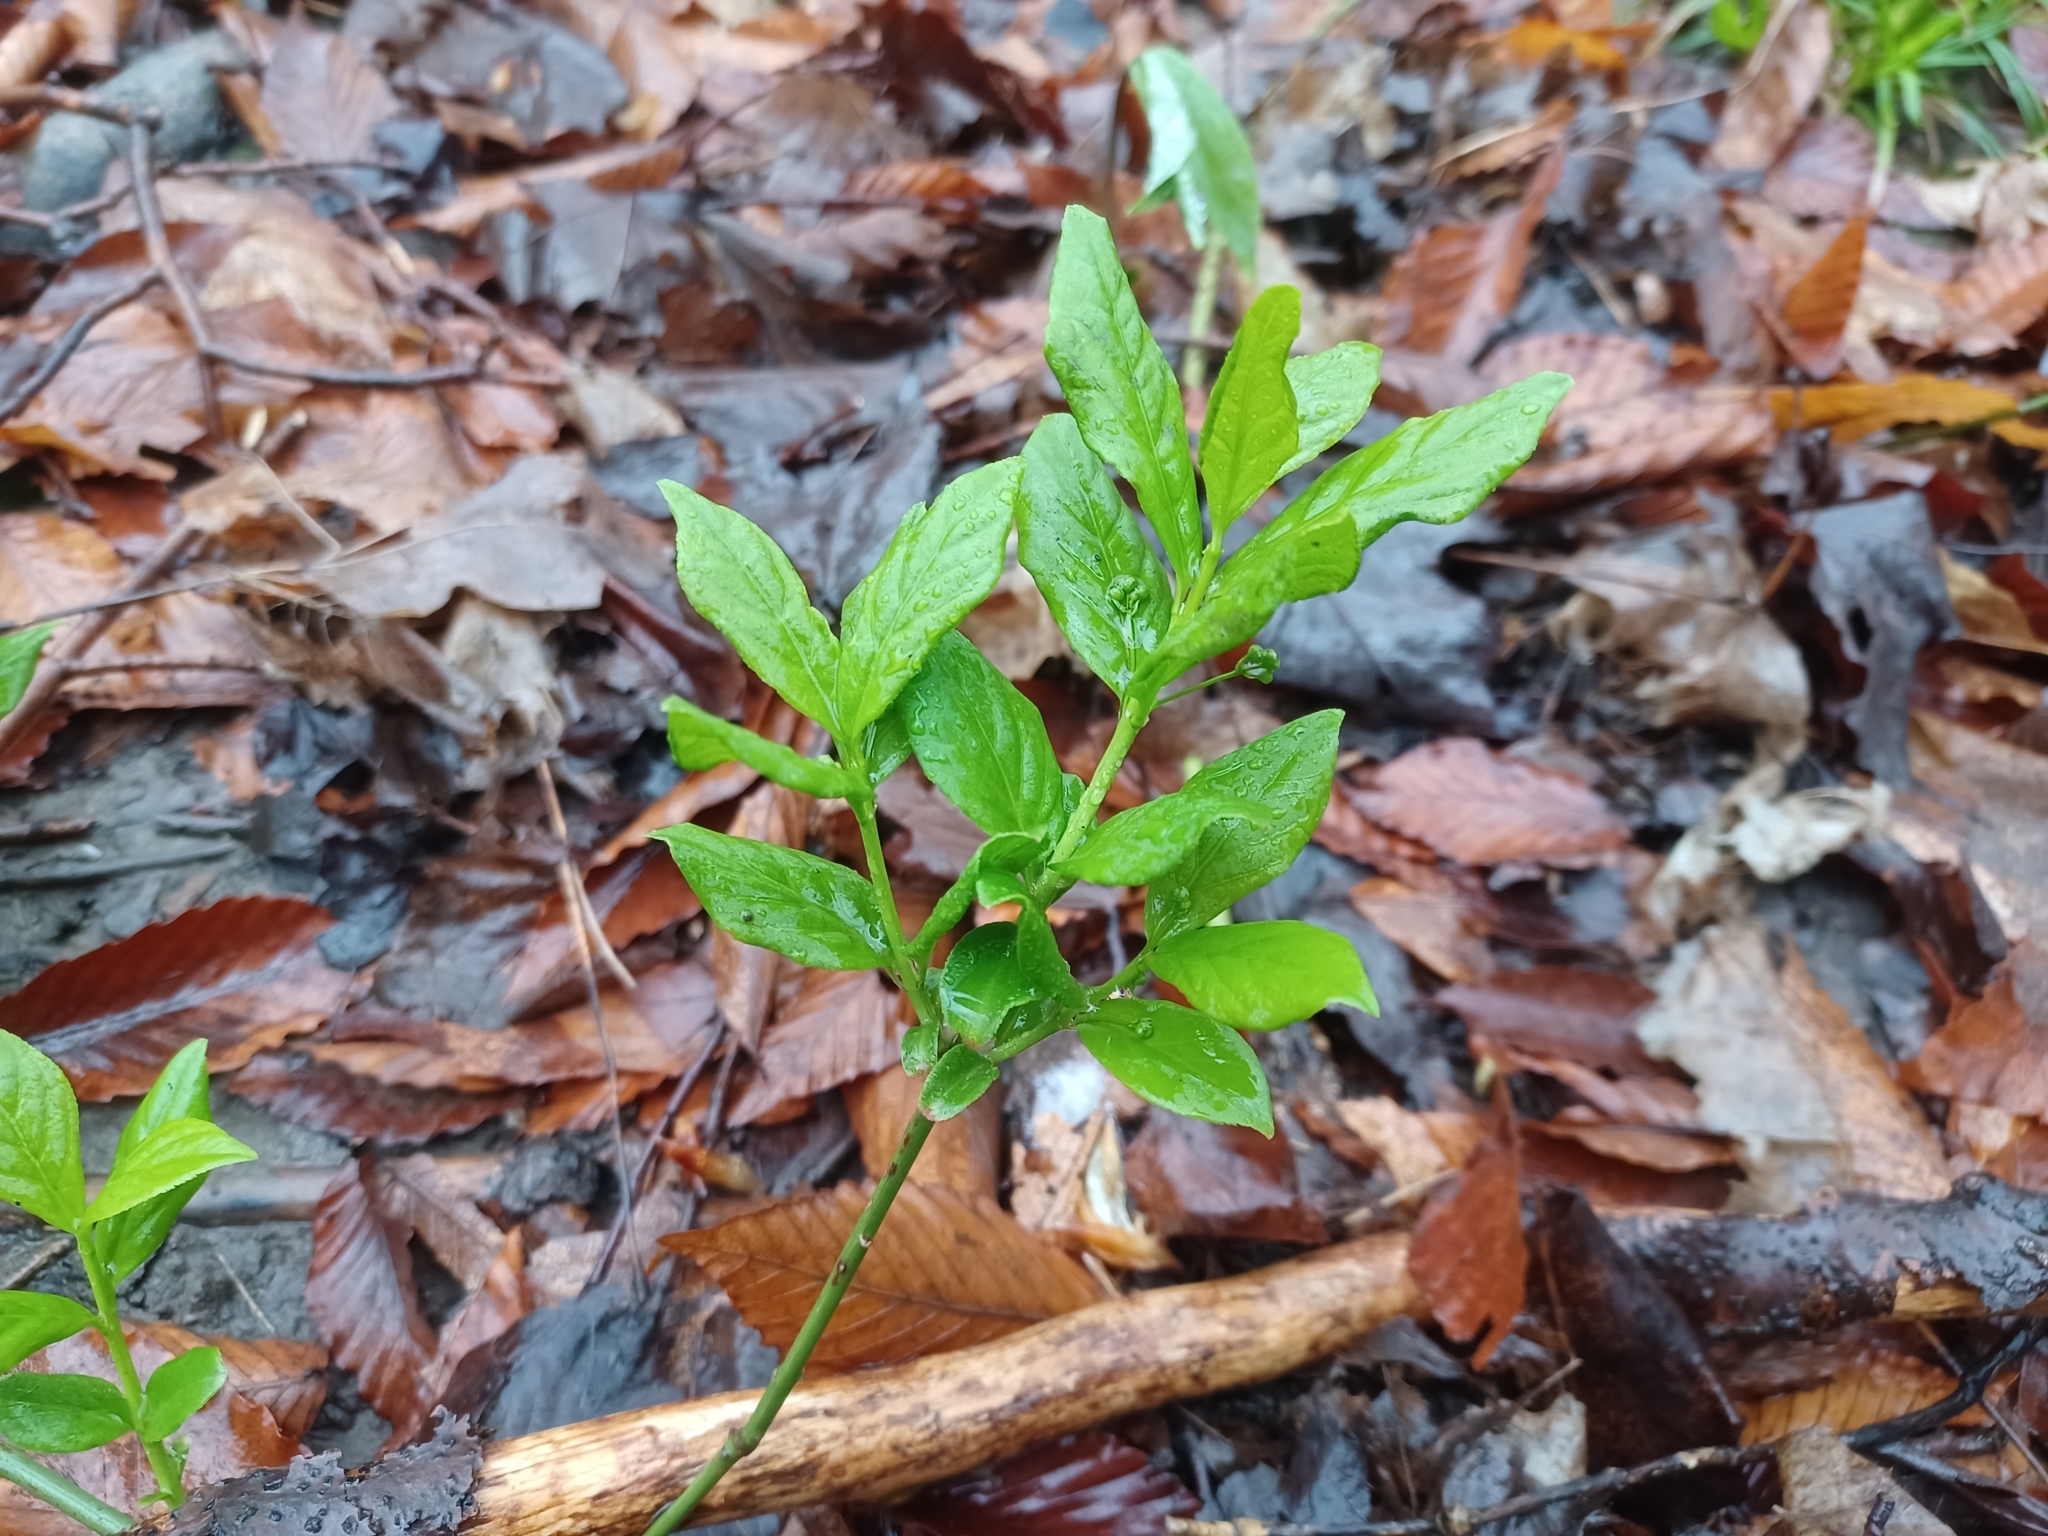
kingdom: Plantae
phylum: Tracheophyta
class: Magnoliopsida
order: Celastrales
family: Celastraceae
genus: Euonymus
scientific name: Euonymus obovatus
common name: Running strawberry-bush
